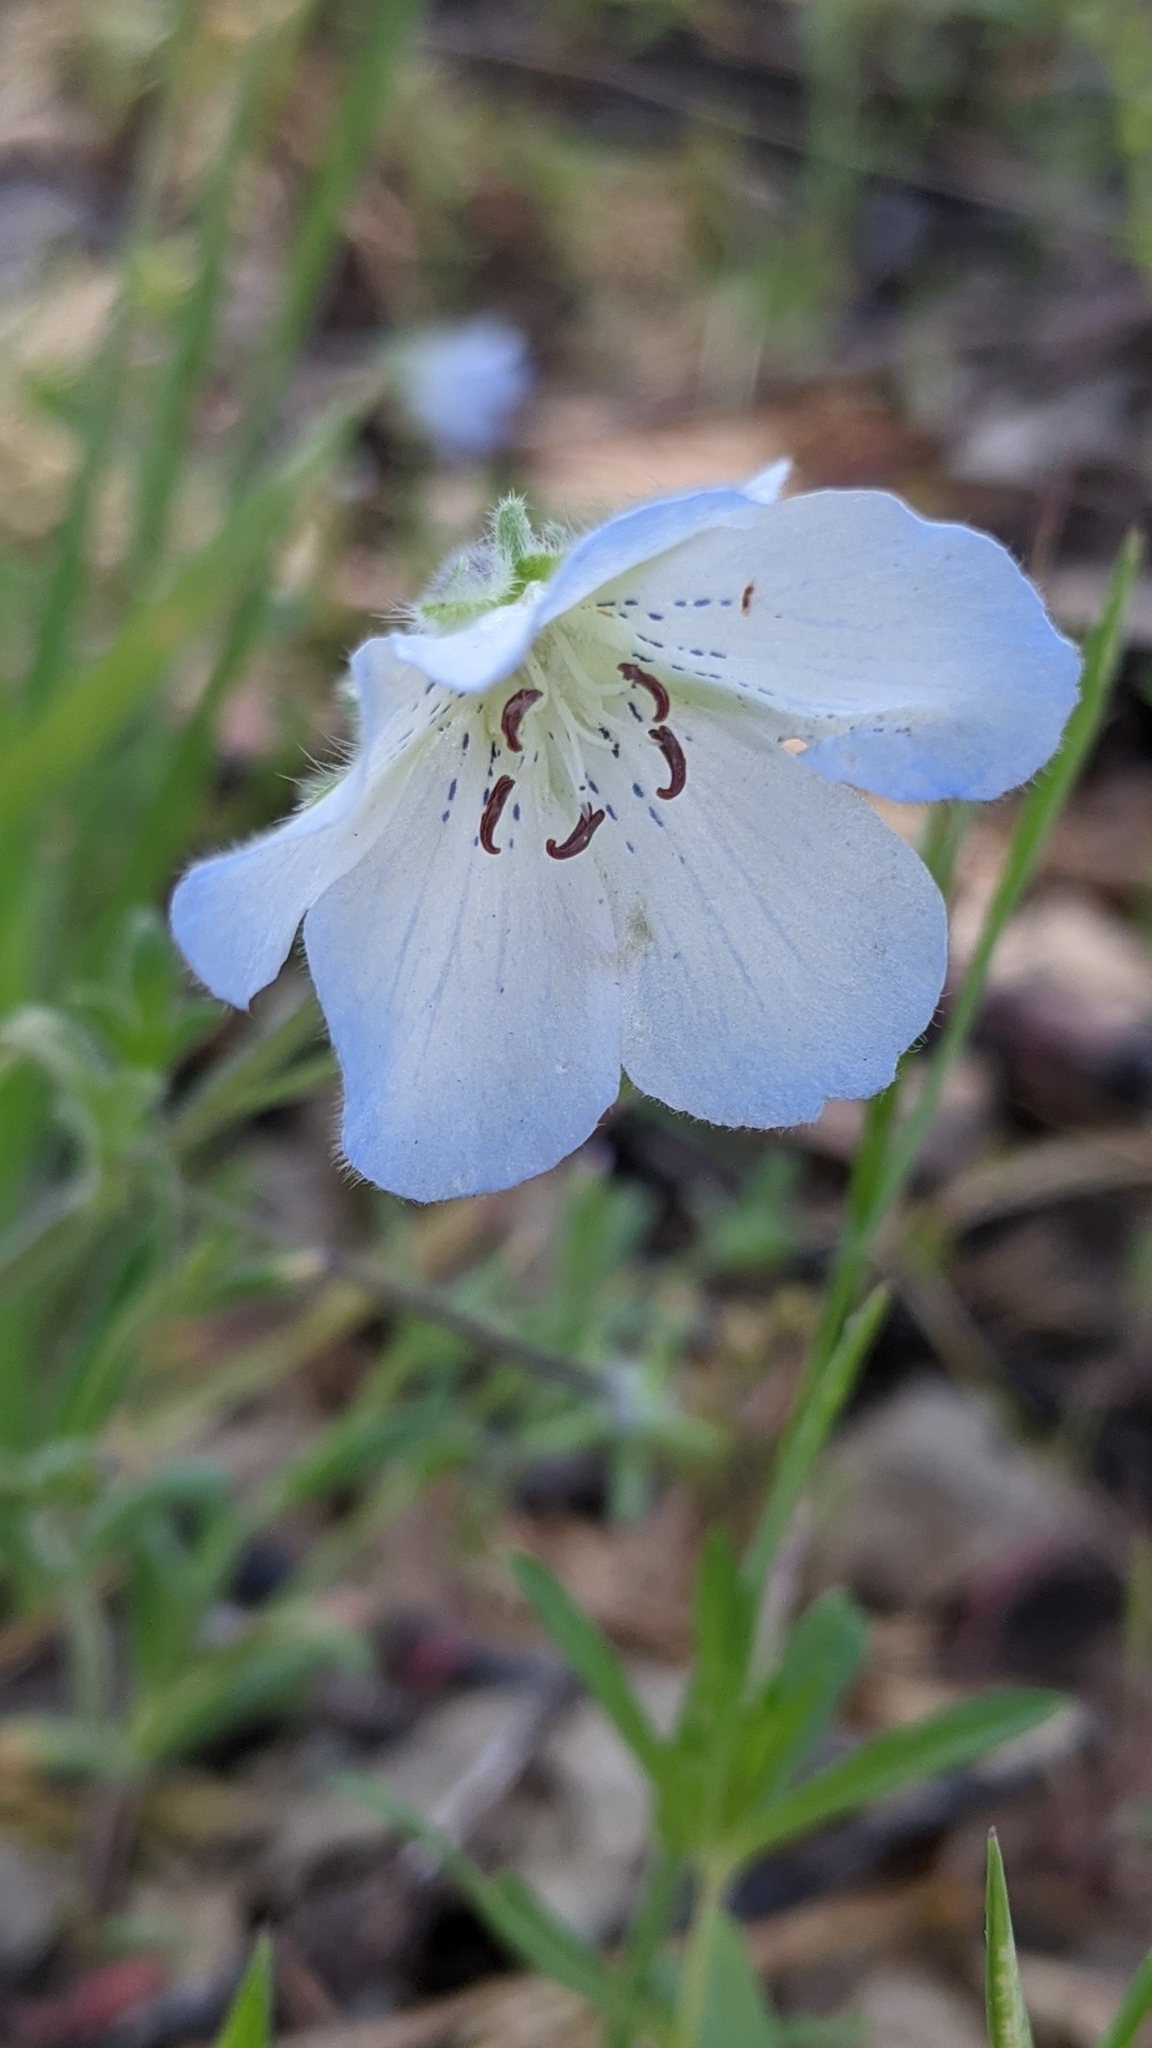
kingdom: Plantae
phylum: Tracheophyta
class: Magnoliopsida
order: Boraginales
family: Hydrophyllaceae
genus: Nemophila
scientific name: Nemophila menziesii
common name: Baby's-blue-eyes
